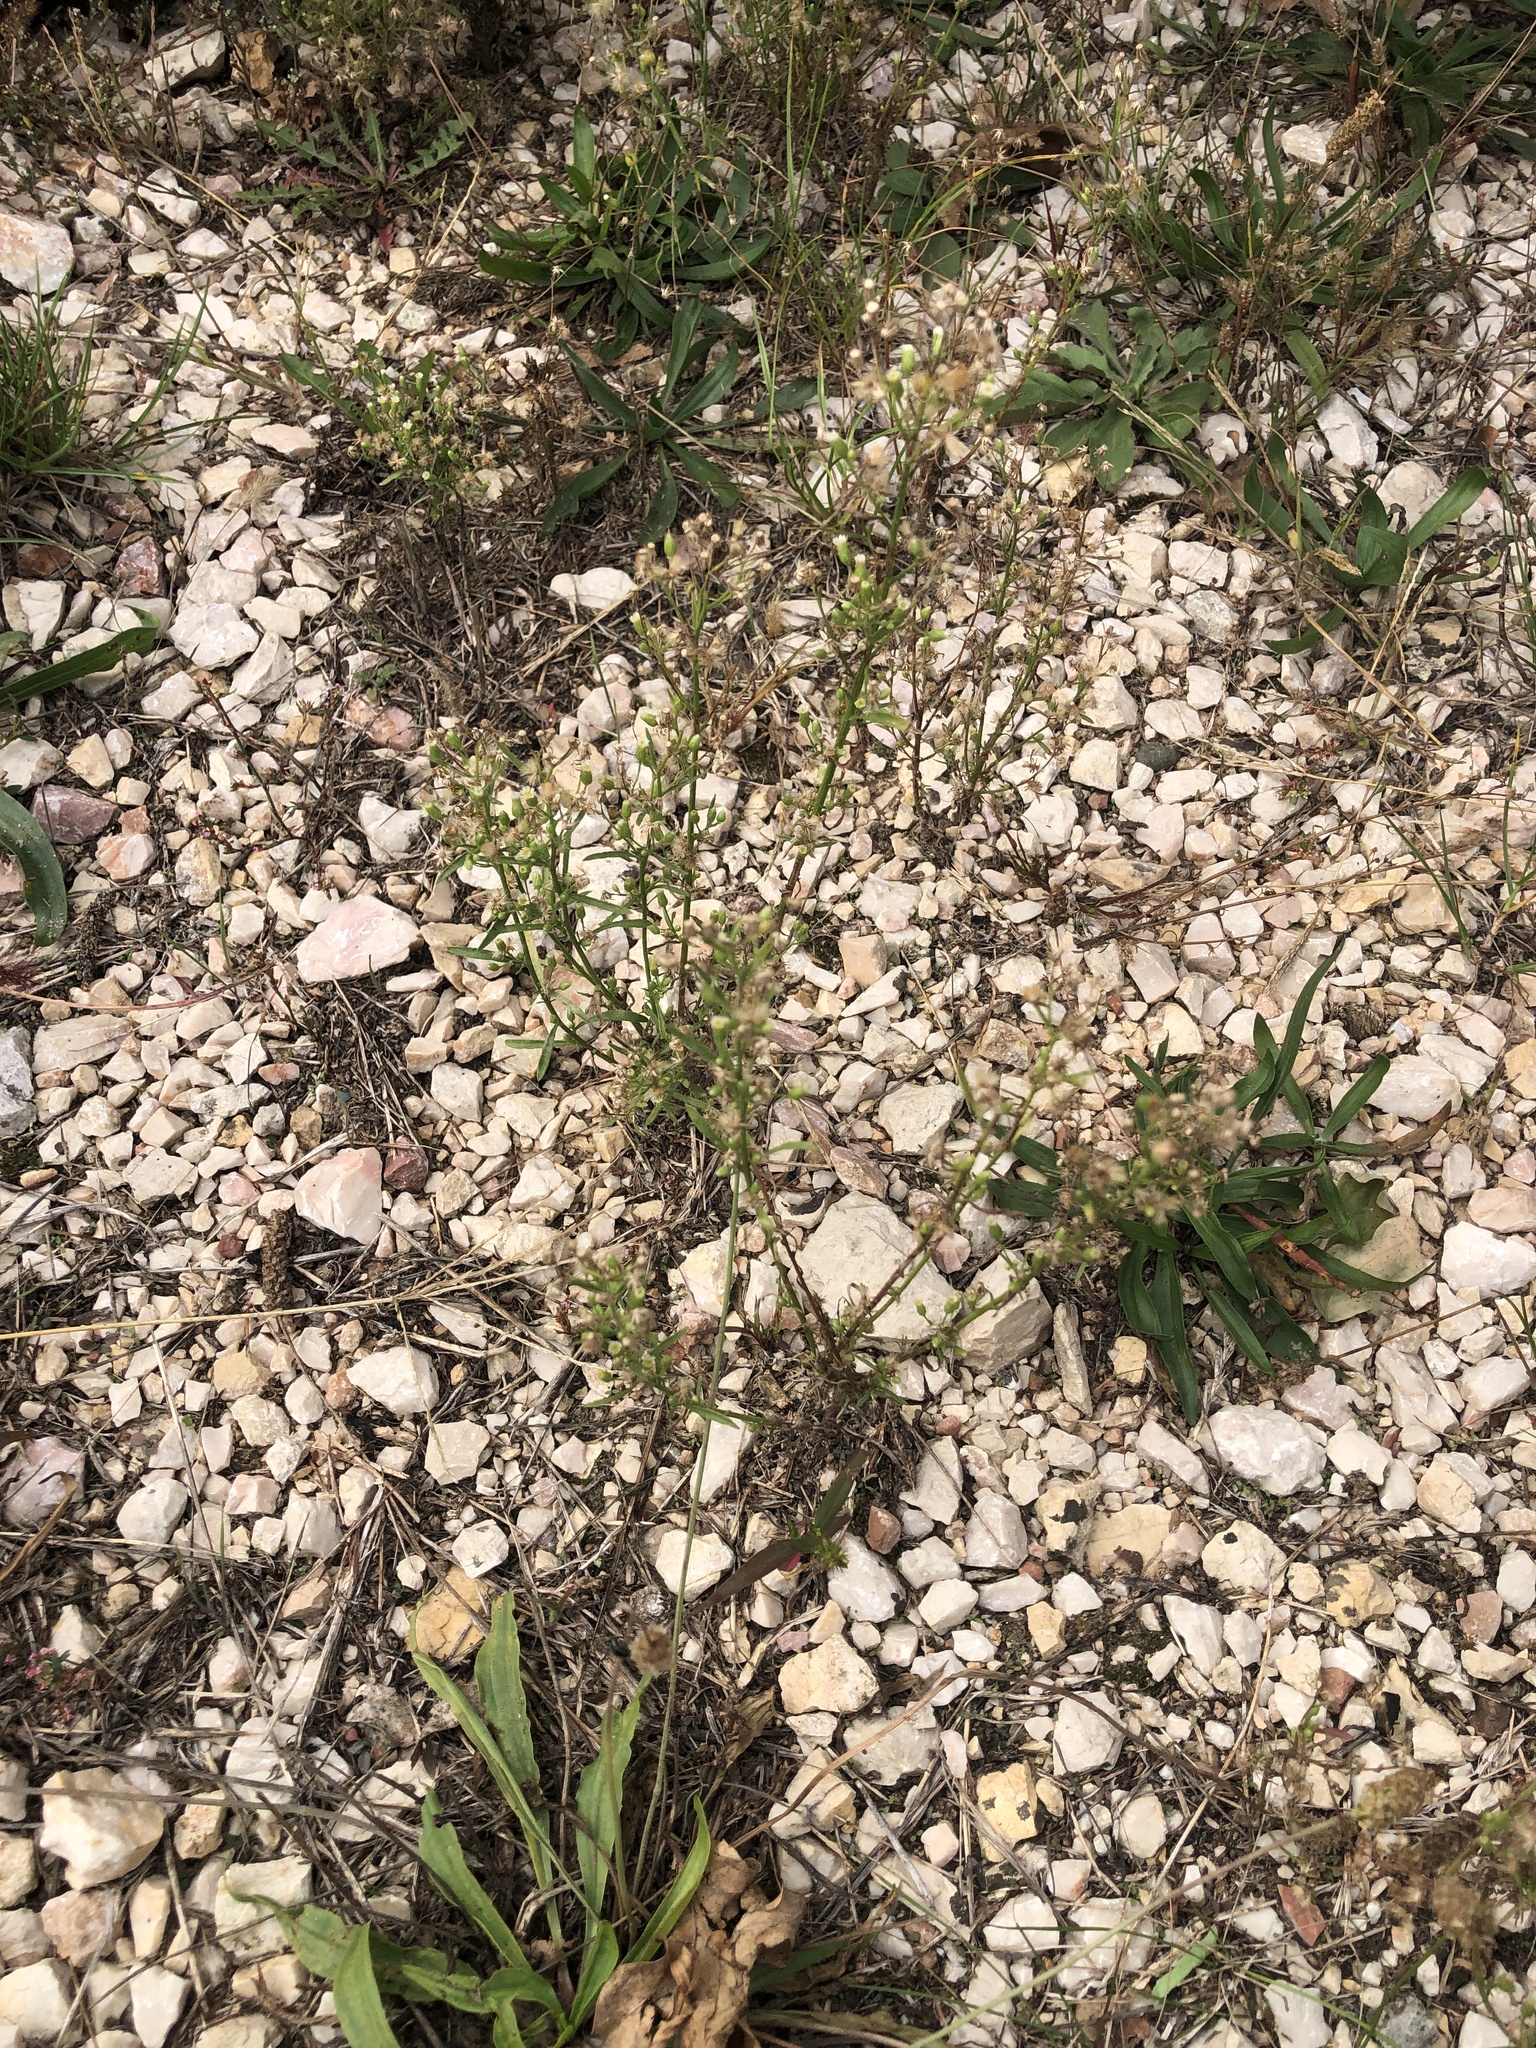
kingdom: Plantae
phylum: Tracheophyta
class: Magnoliopsida
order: Asterales
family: Asteraceae
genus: Erigeron
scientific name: Erigeron canadensis
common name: Canadian fleabane
